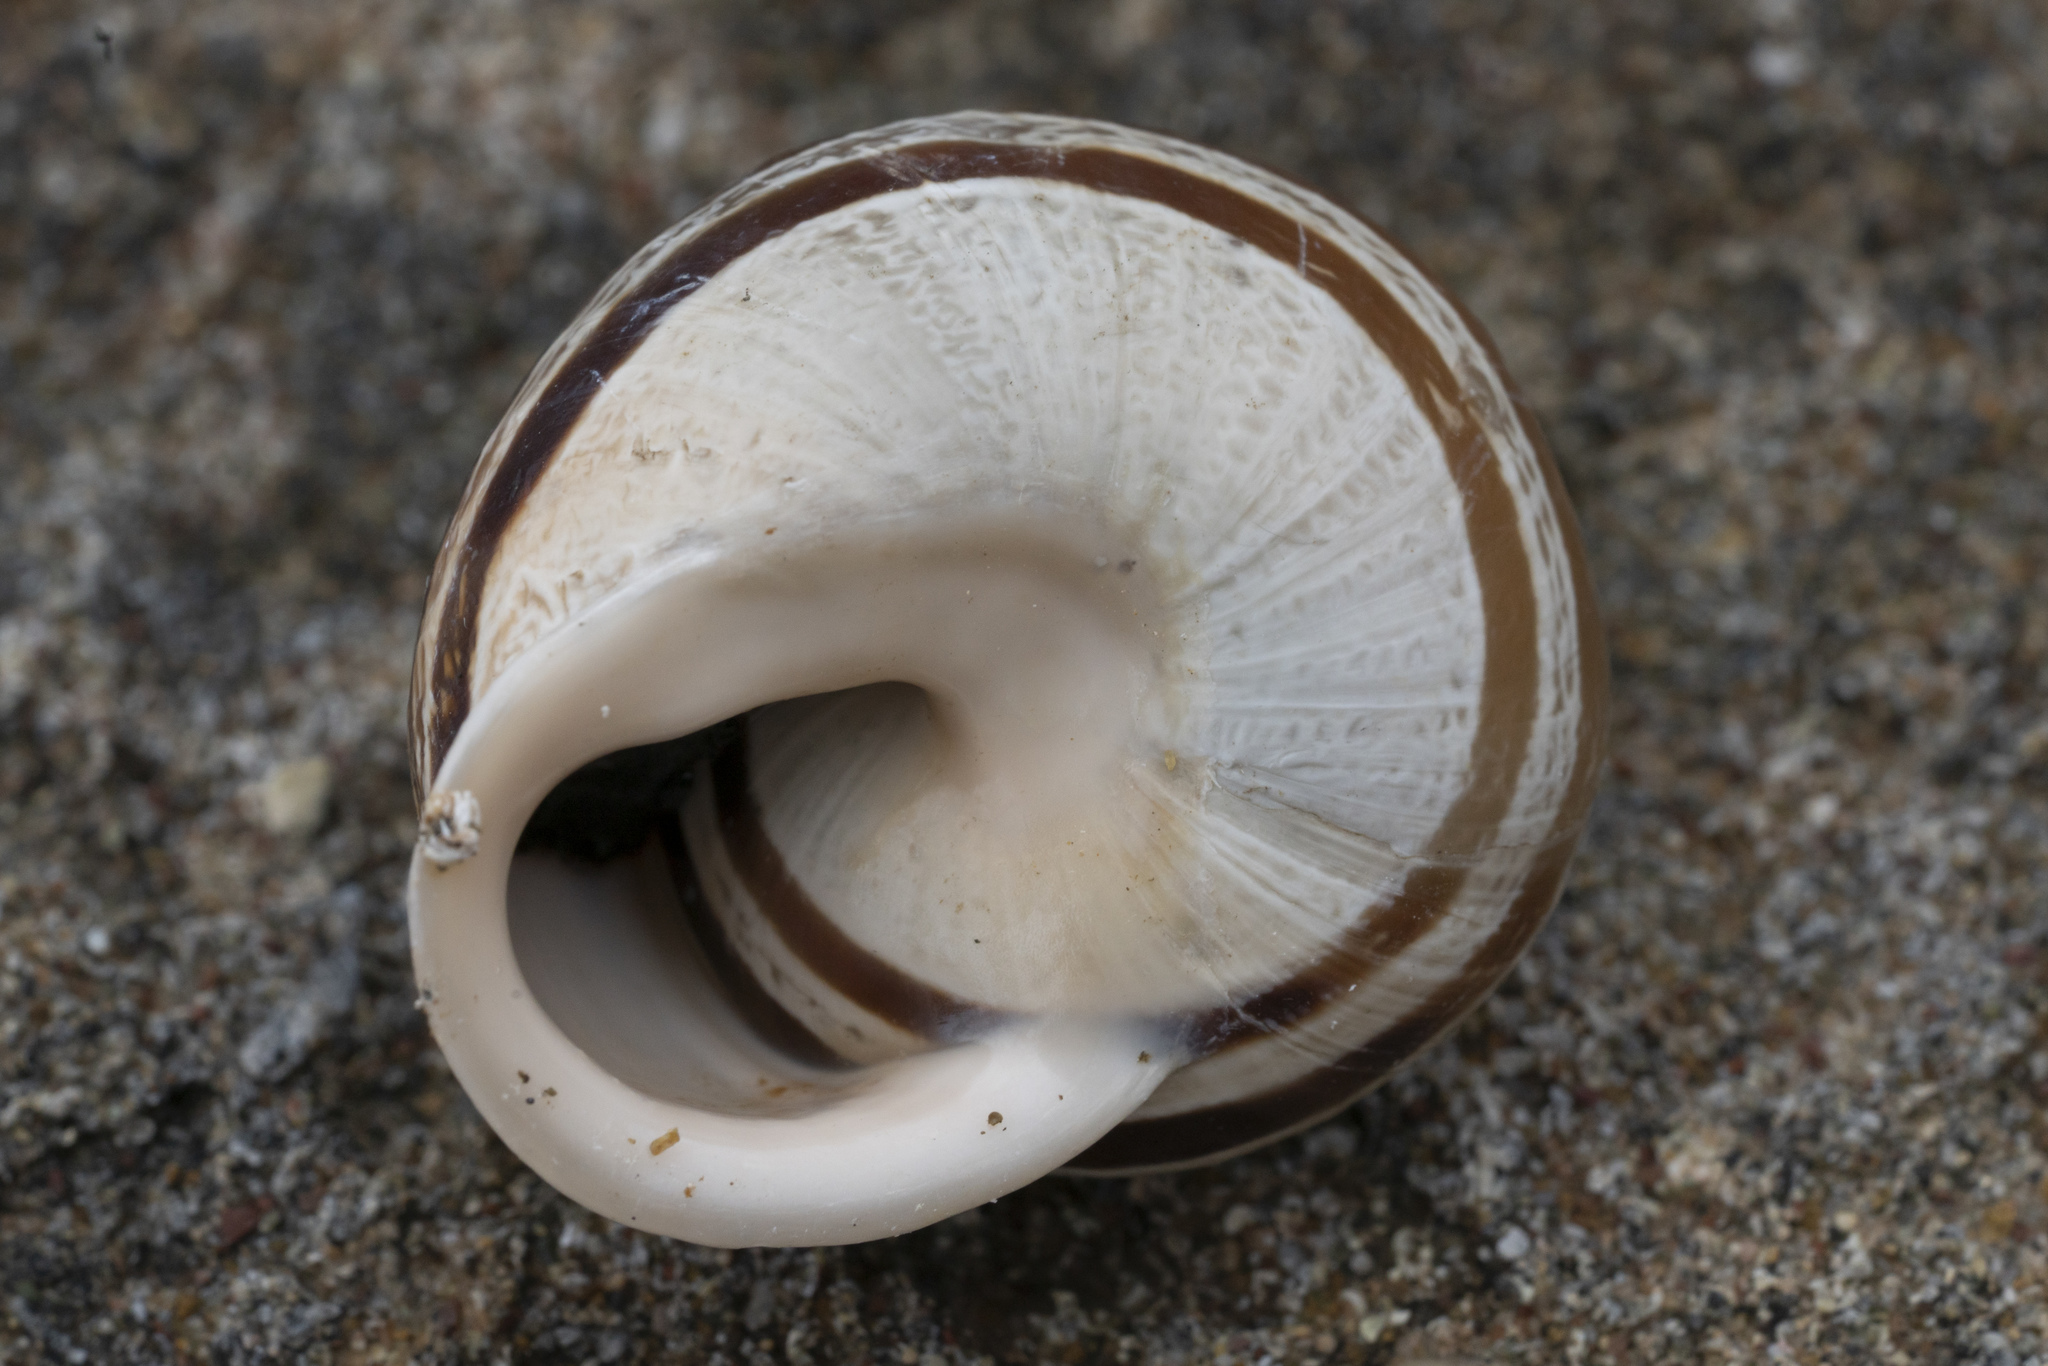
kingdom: Animalia
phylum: Mollusca
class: Gastropoda
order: Stylommatophora
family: Helicidae
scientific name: Helicidae
